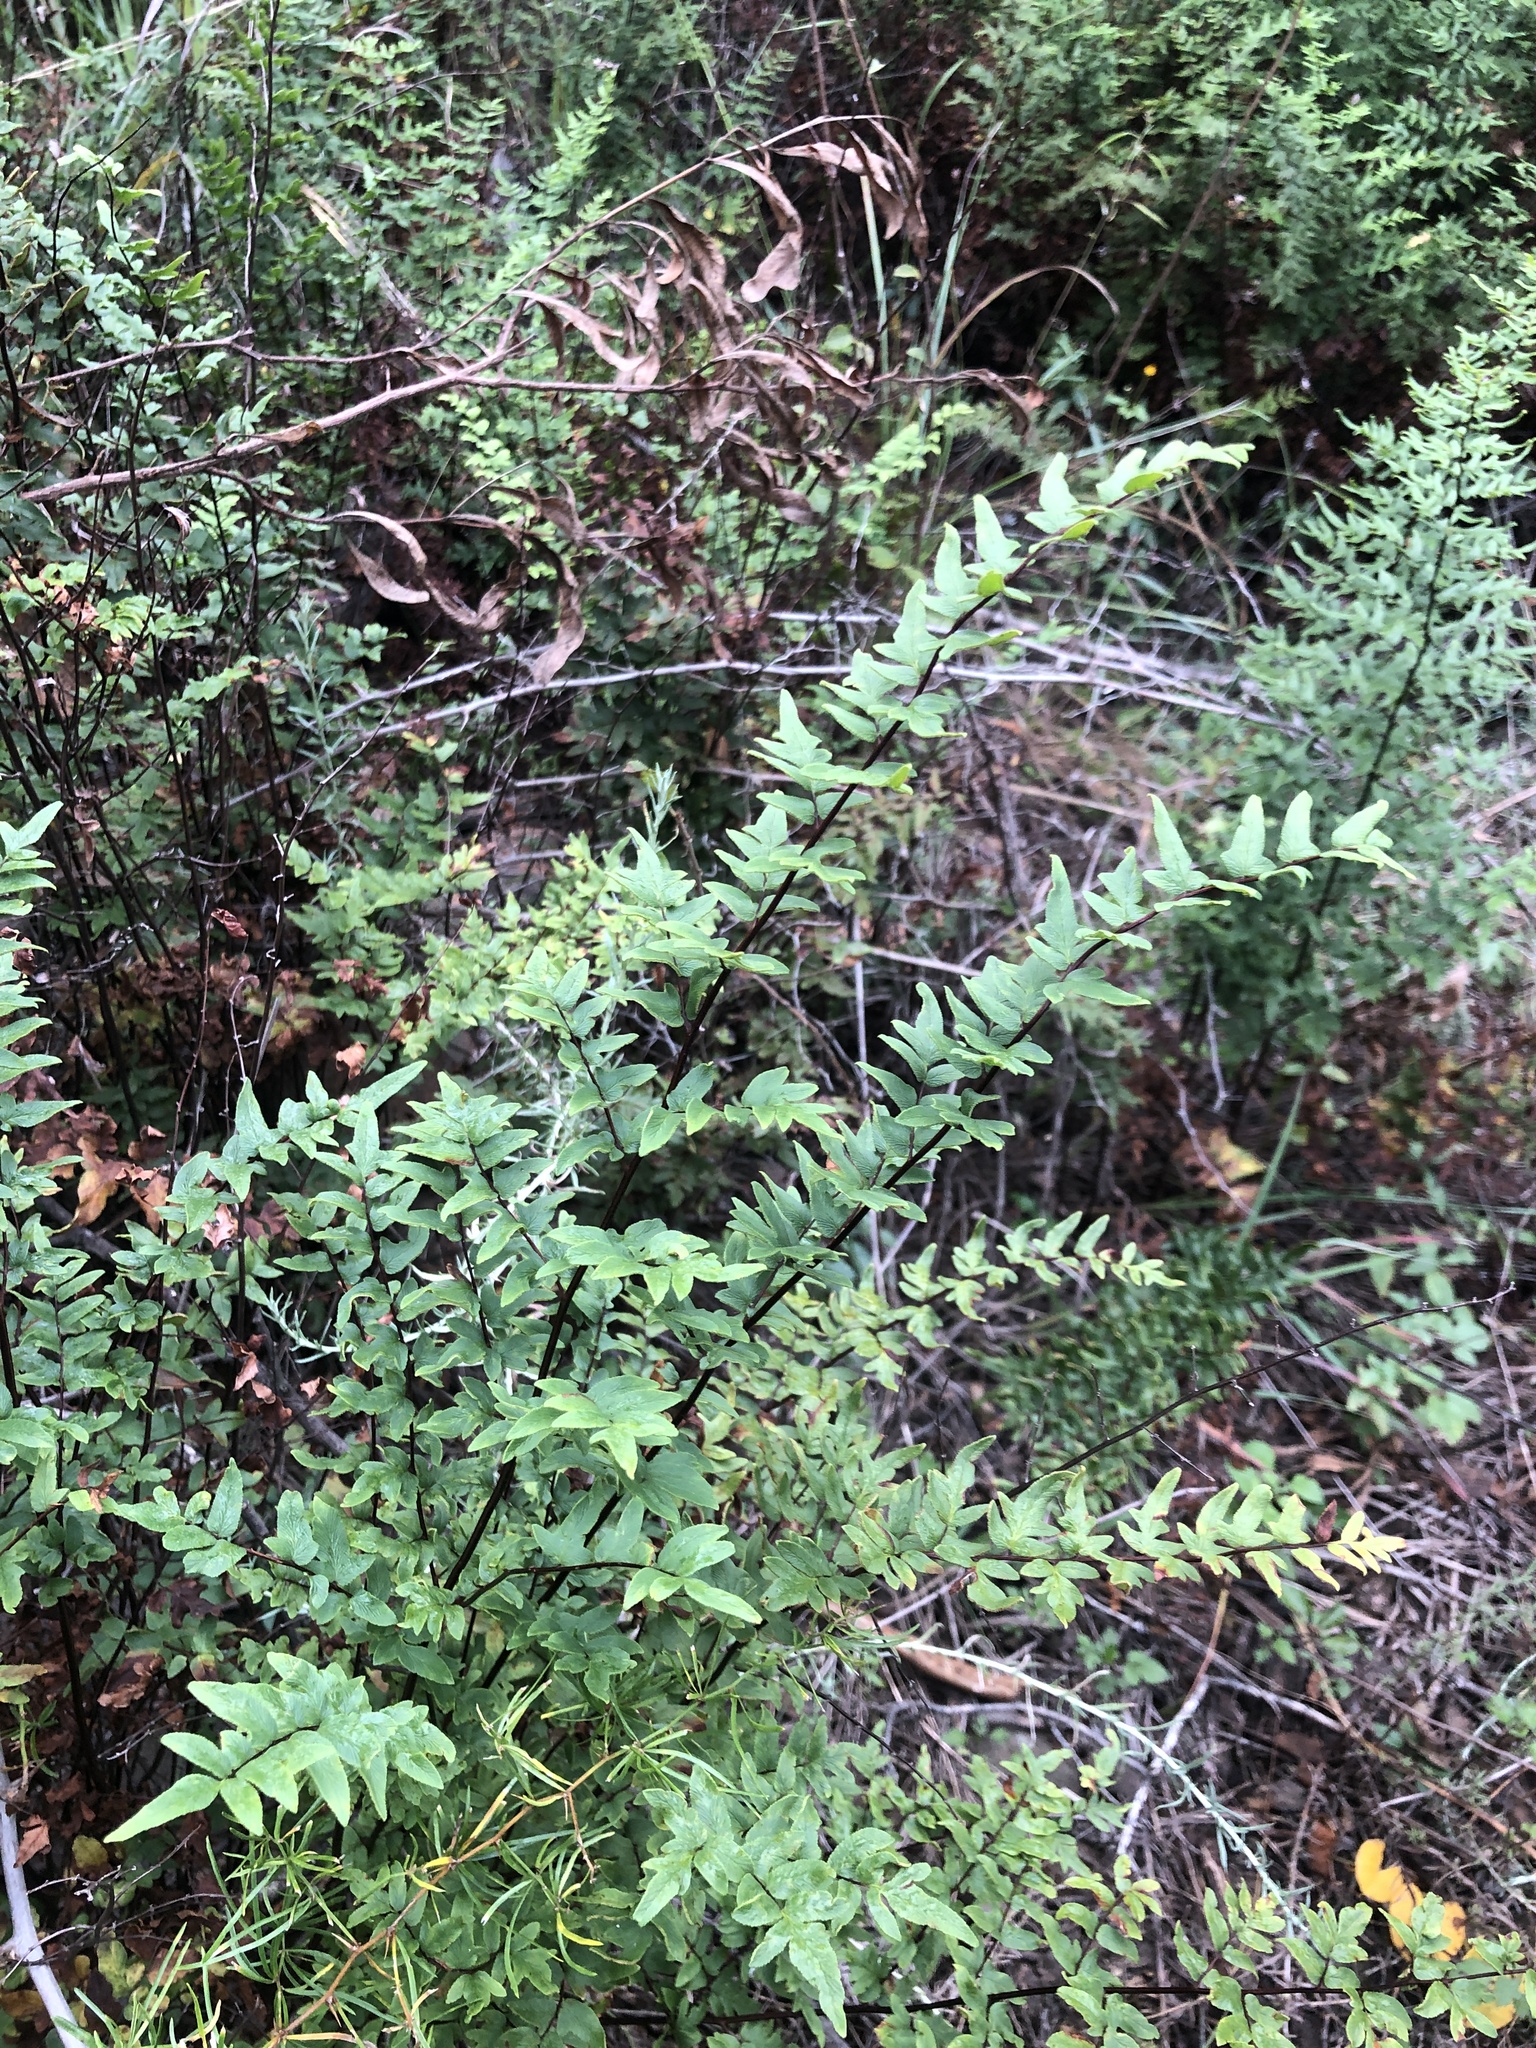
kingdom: Plantae
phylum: Tracheophyta
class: Polypodiopsida
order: Polypodiales
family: Pteridaceae
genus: Cheilanthes
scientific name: Cheilanthes viridis
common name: Green cliffbrake
